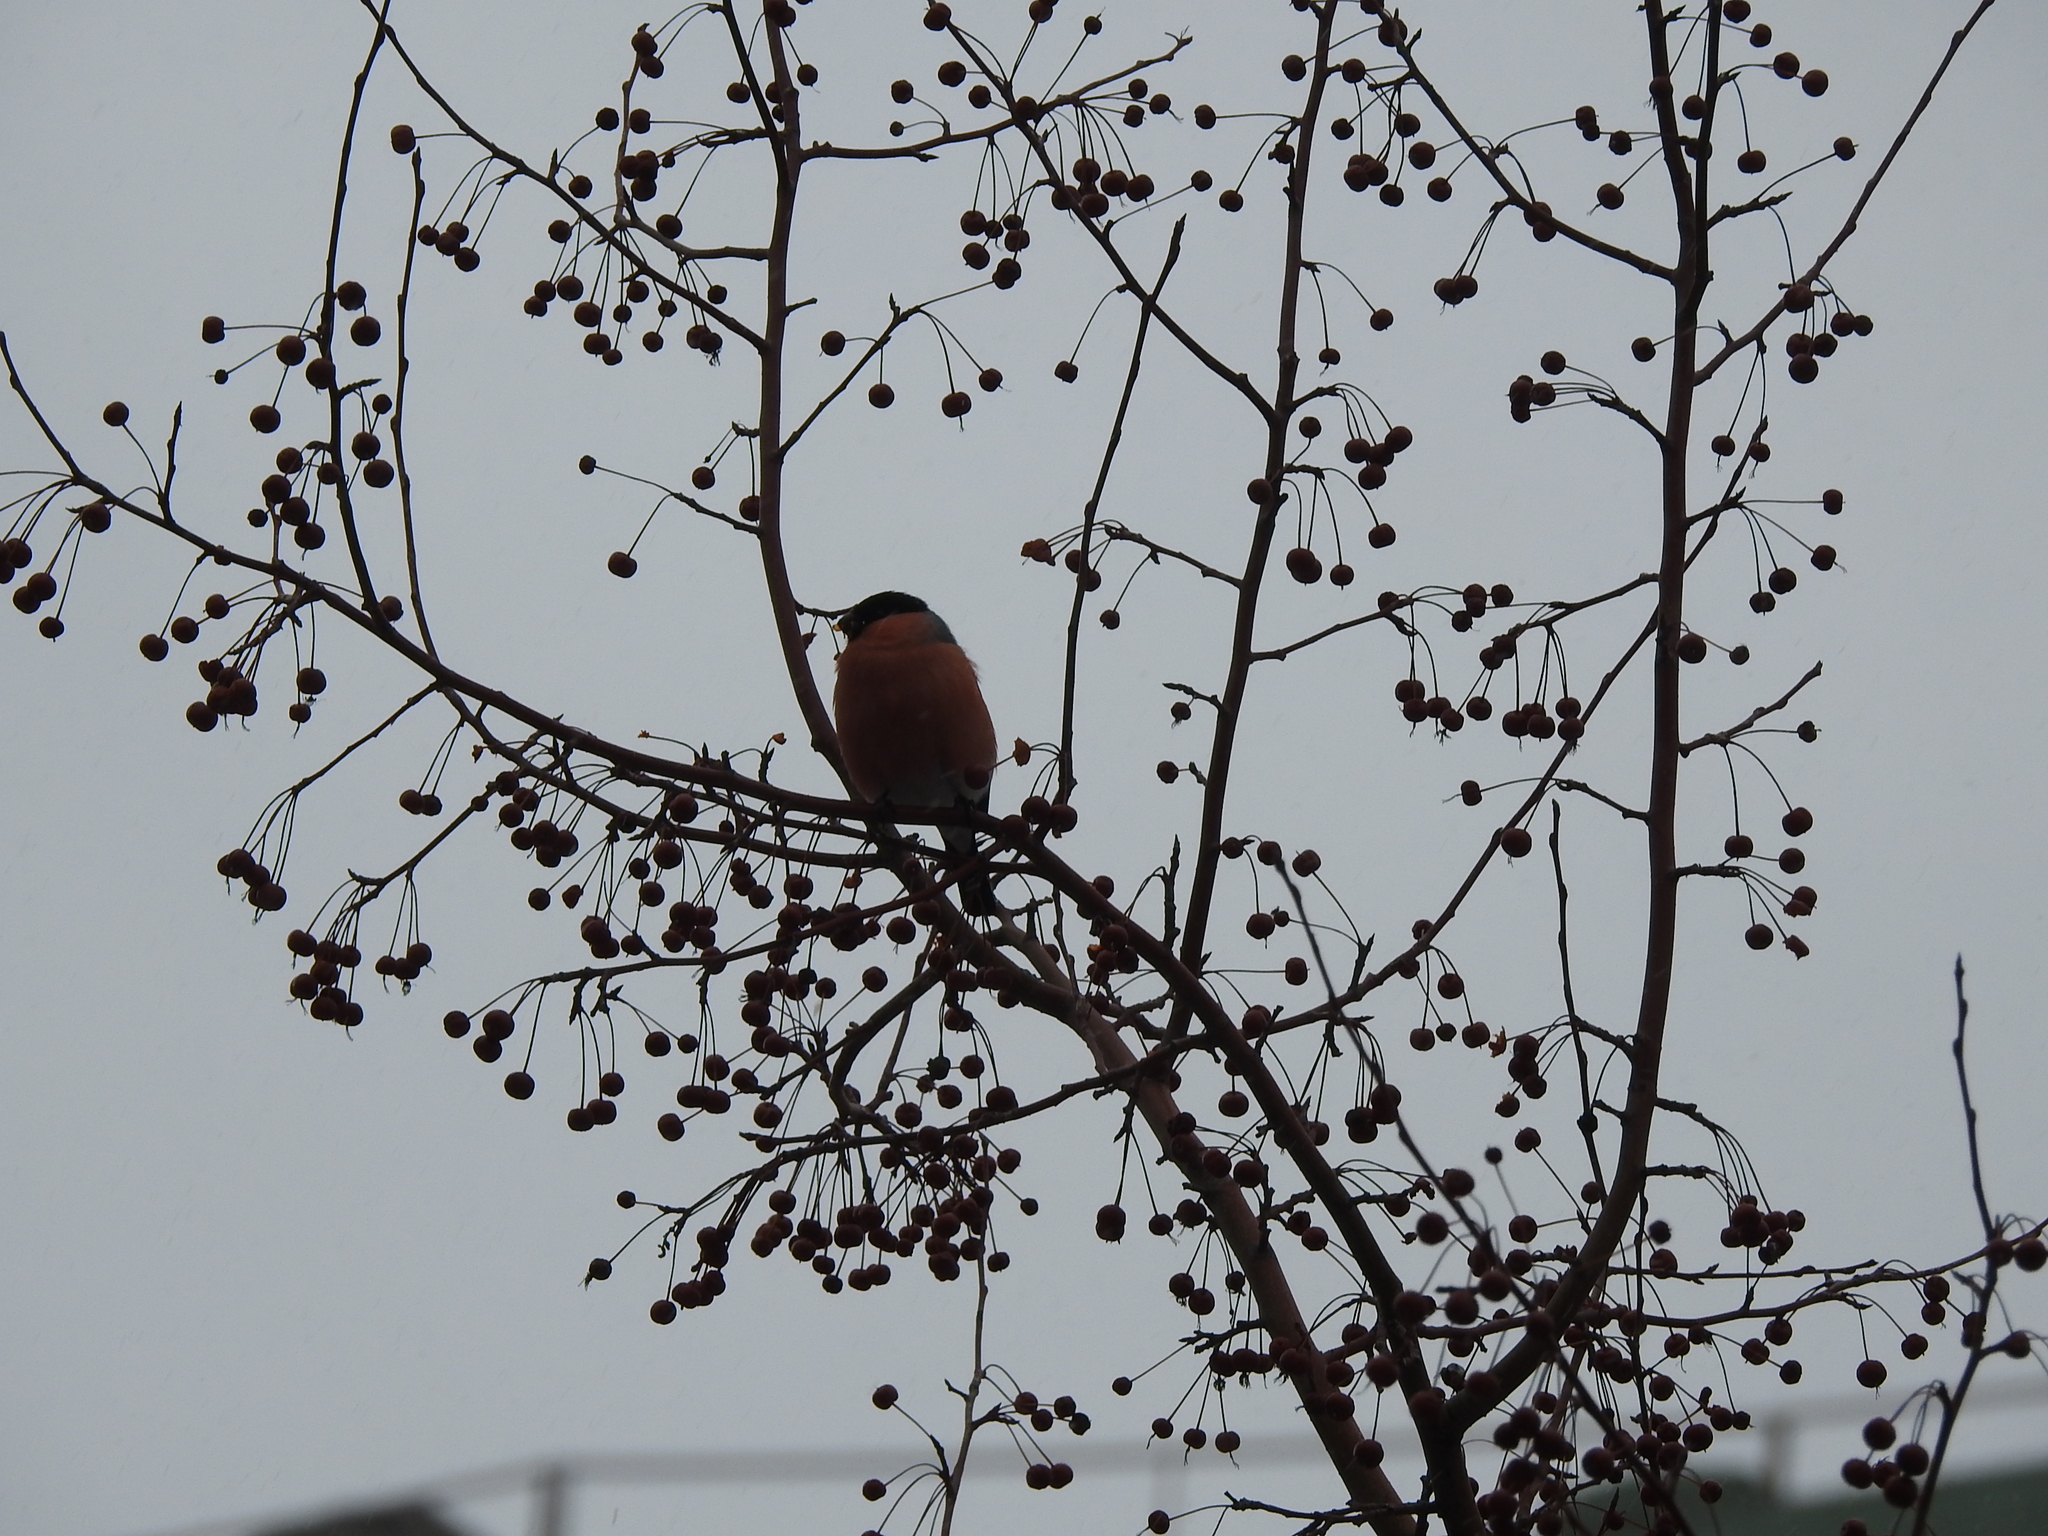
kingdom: Animalia
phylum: Chordata
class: Aves
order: Passeriformes
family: Fringillidae
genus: Pyrrhula
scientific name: Pyrrhula pyrrhula
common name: Eurasian bullfinch
